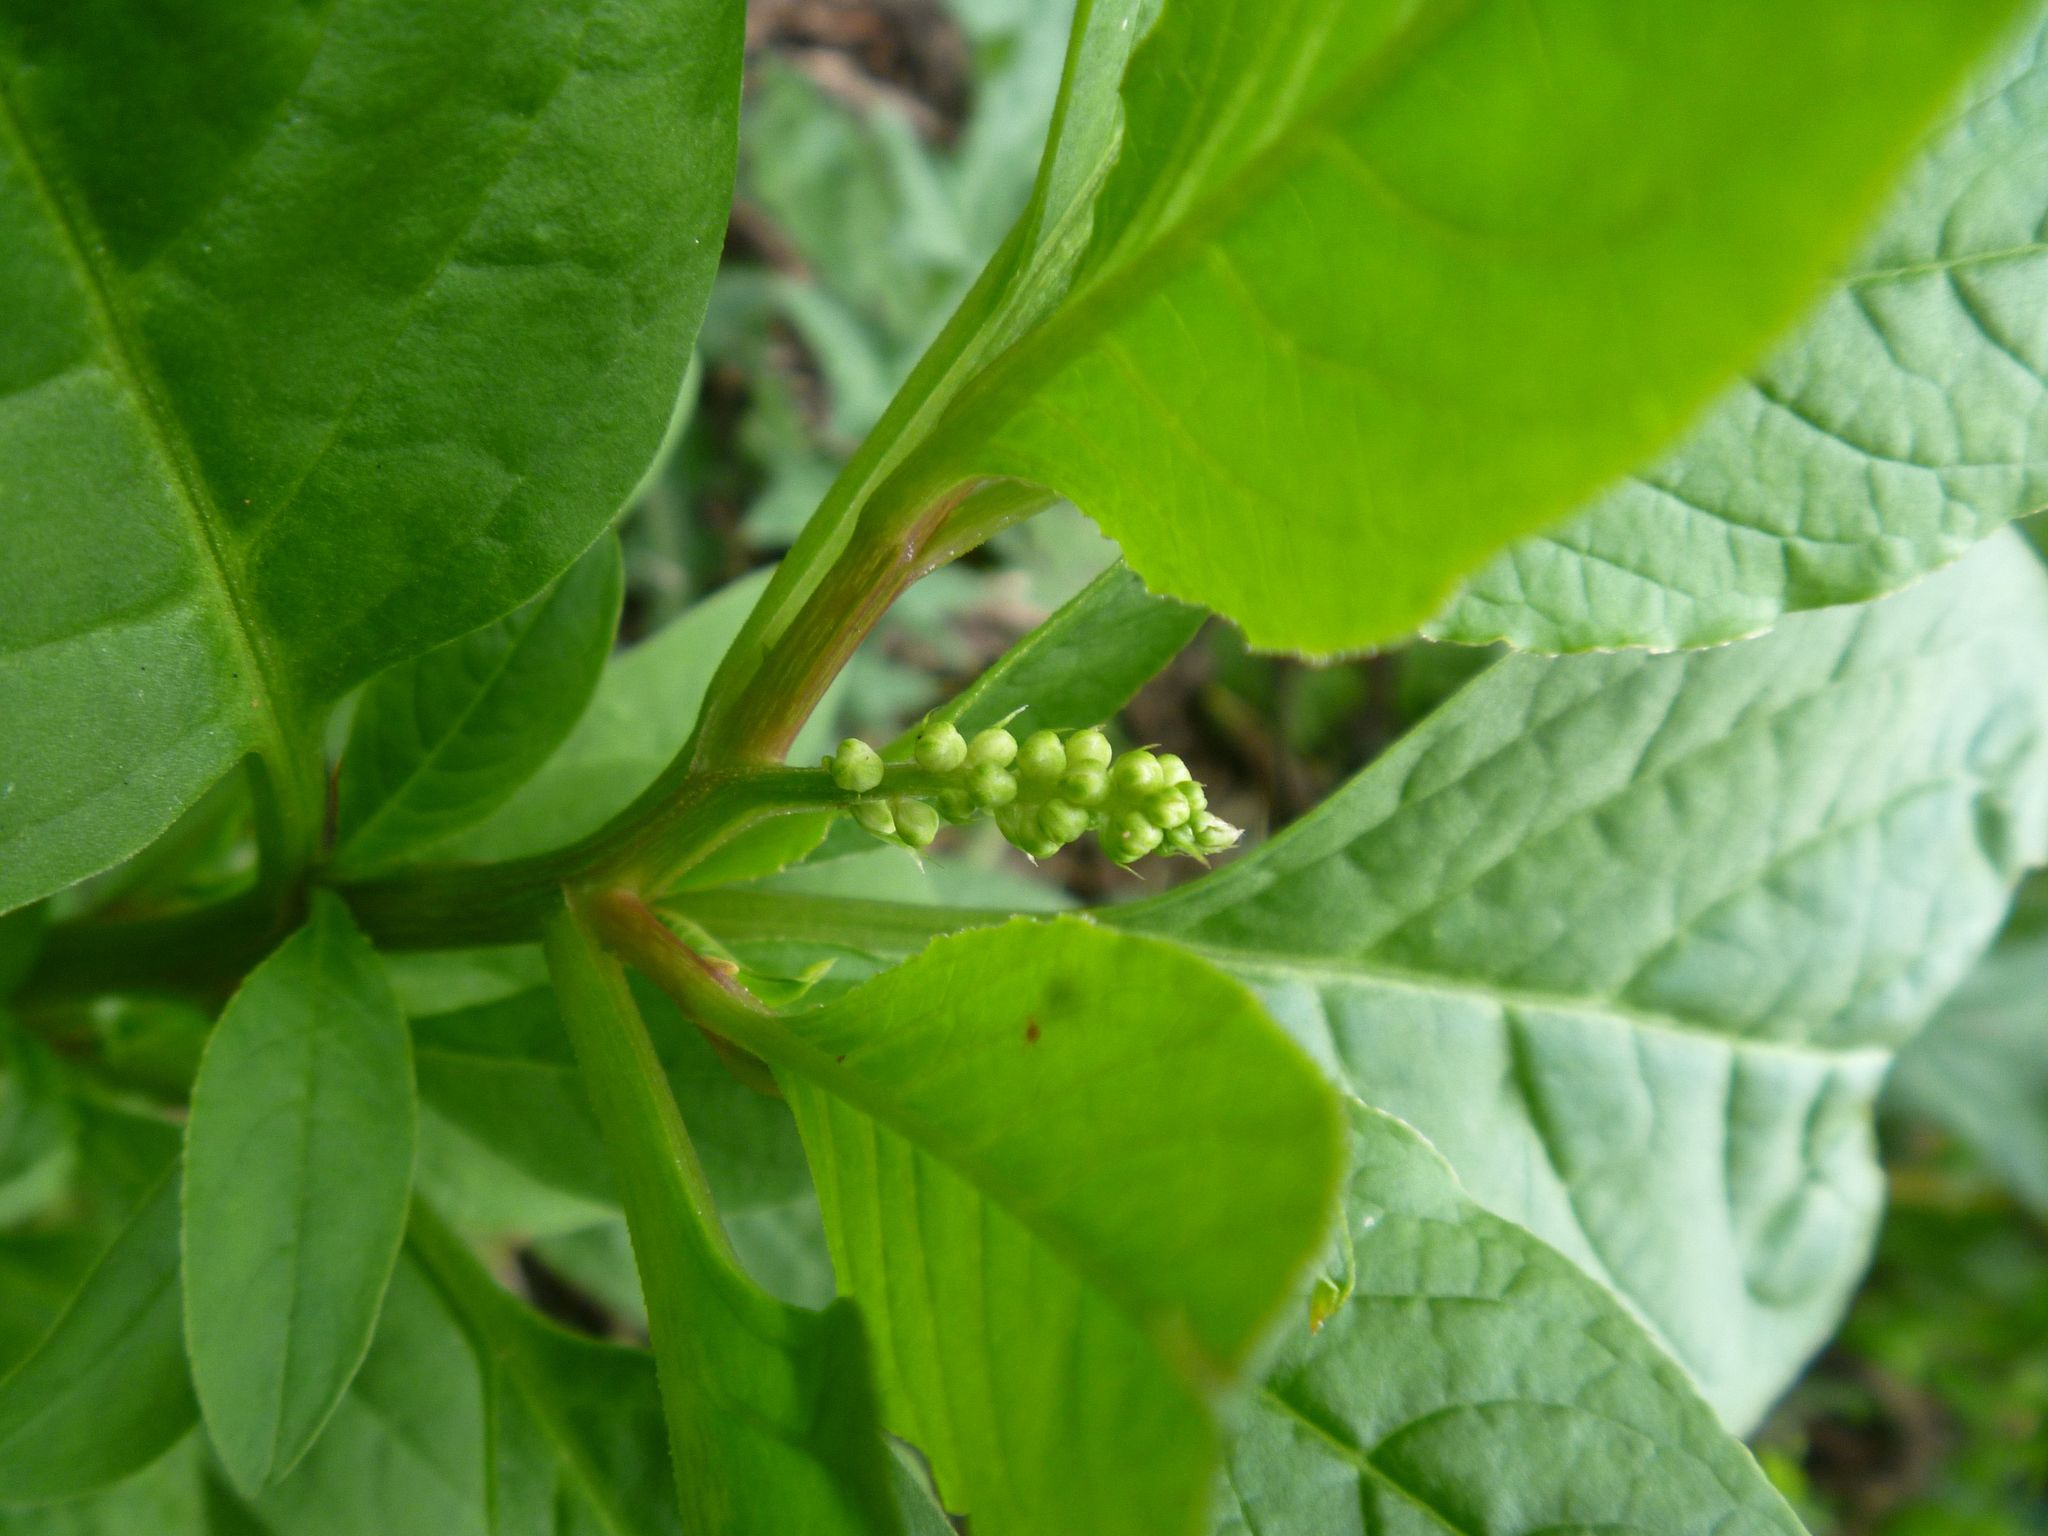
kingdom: Plantae
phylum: Tracheophyta
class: Magnoliopsida
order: Caryophyllales
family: Phytolaccaceae
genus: Phytolacca
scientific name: Phytolacca icosandra
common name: Button pokeweed
